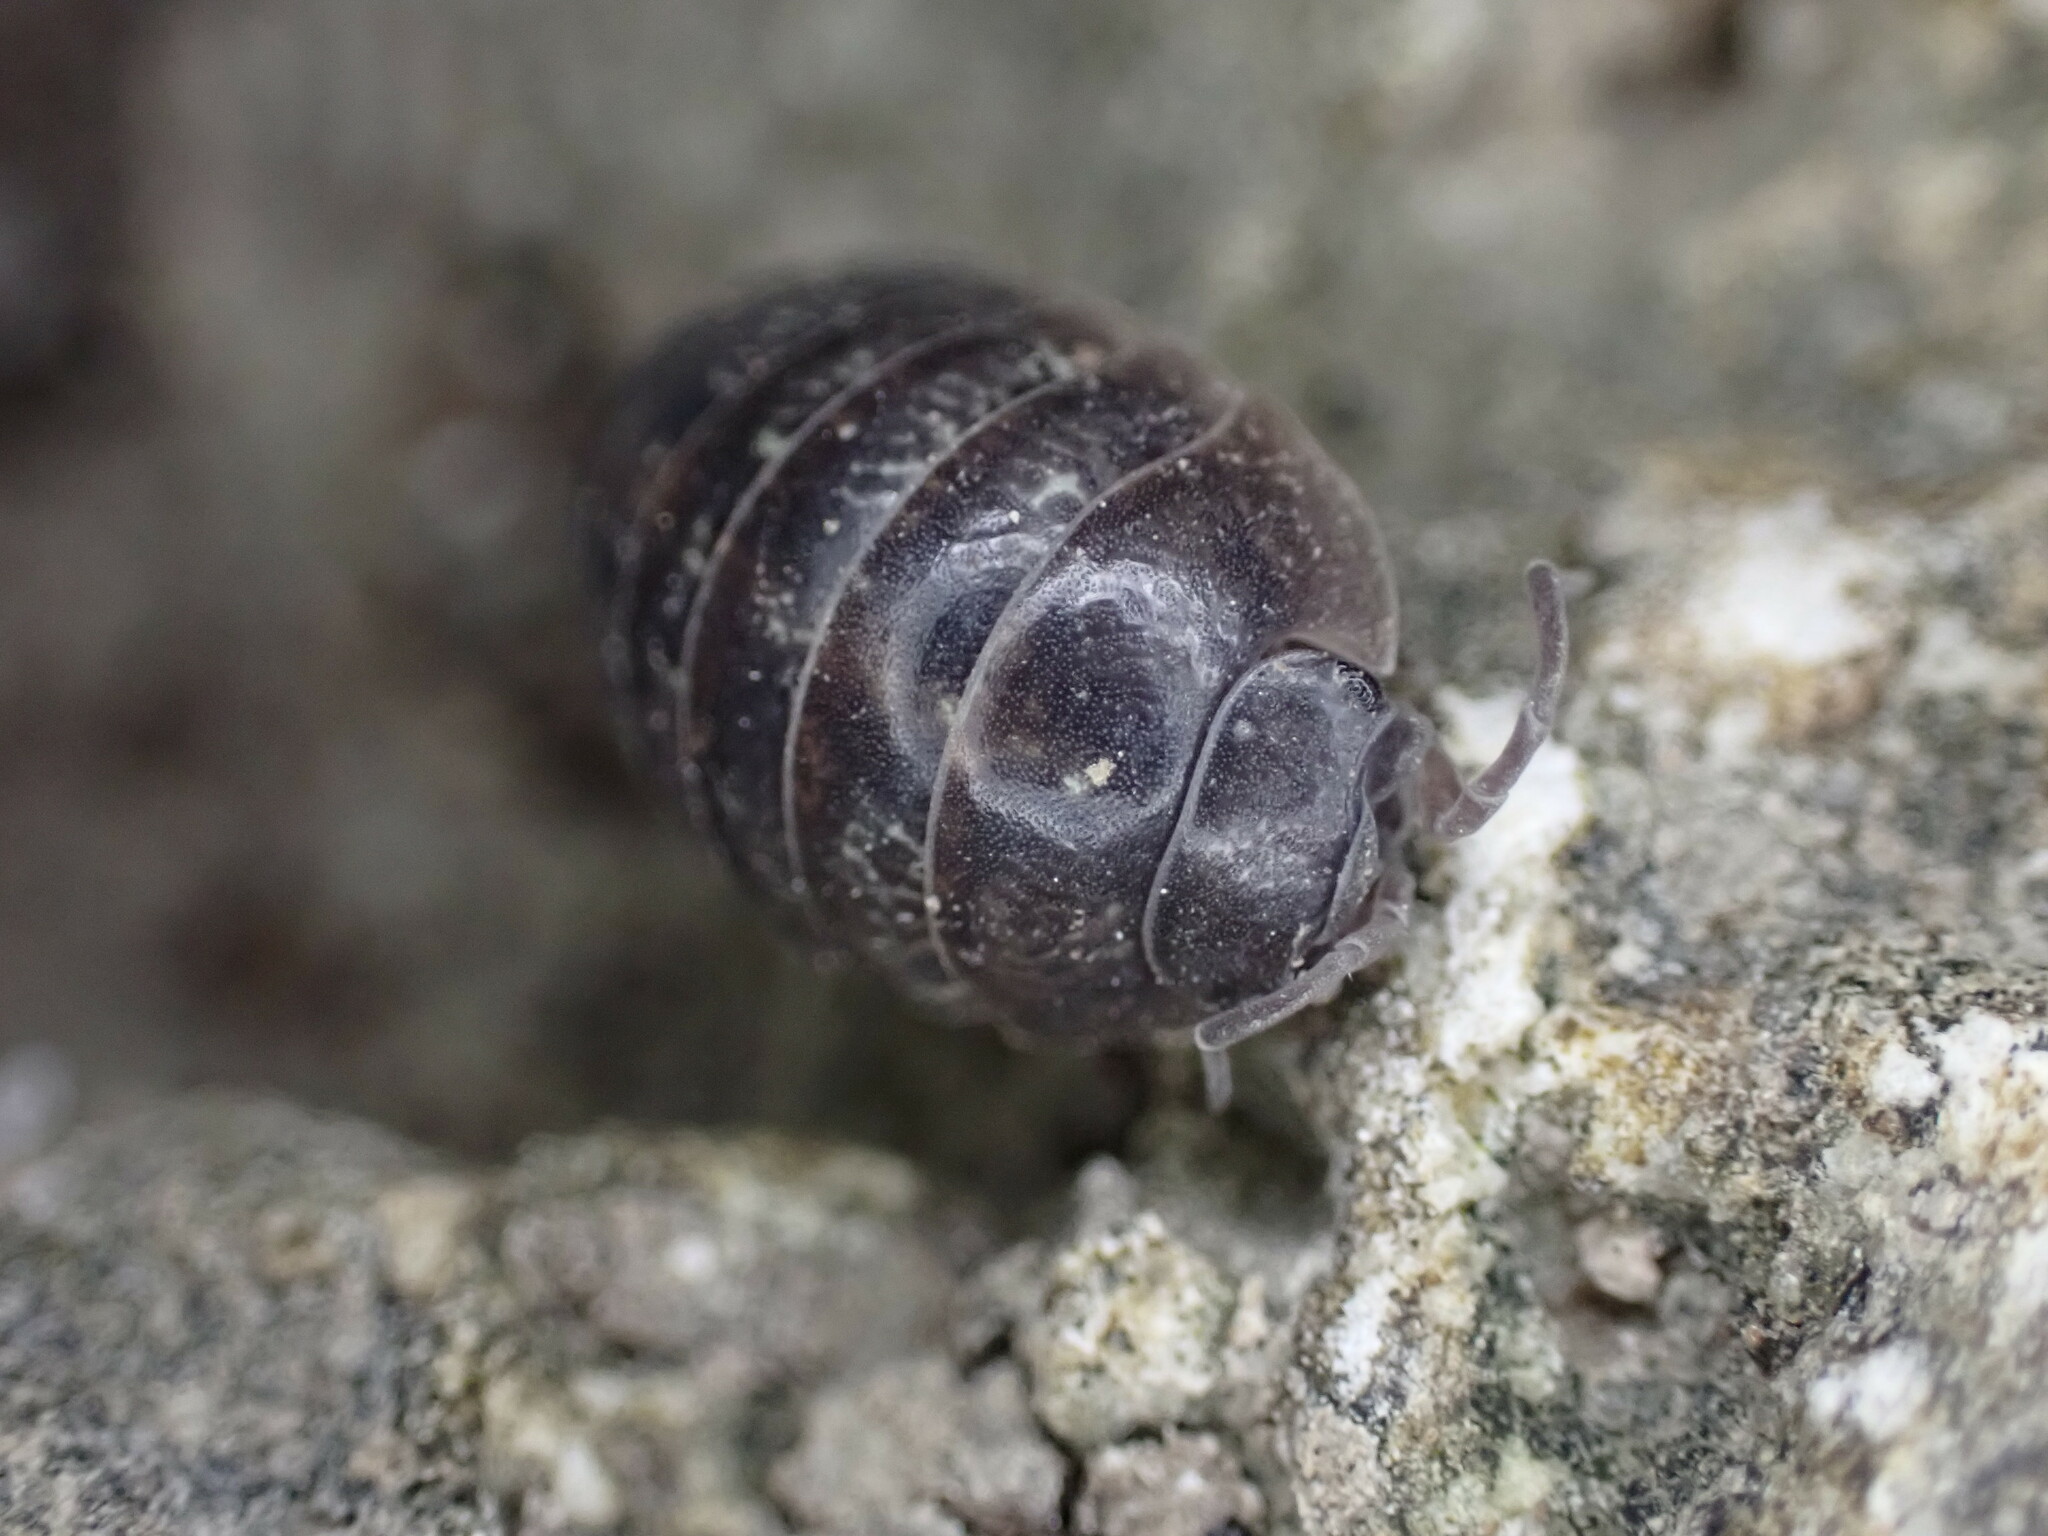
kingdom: Animalia
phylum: Arthropoda
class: Malacostraca
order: Isopoda
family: Armadillidiidae
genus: Armadillidium
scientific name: Armadillidium vulgare
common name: Common pill woodlouse
